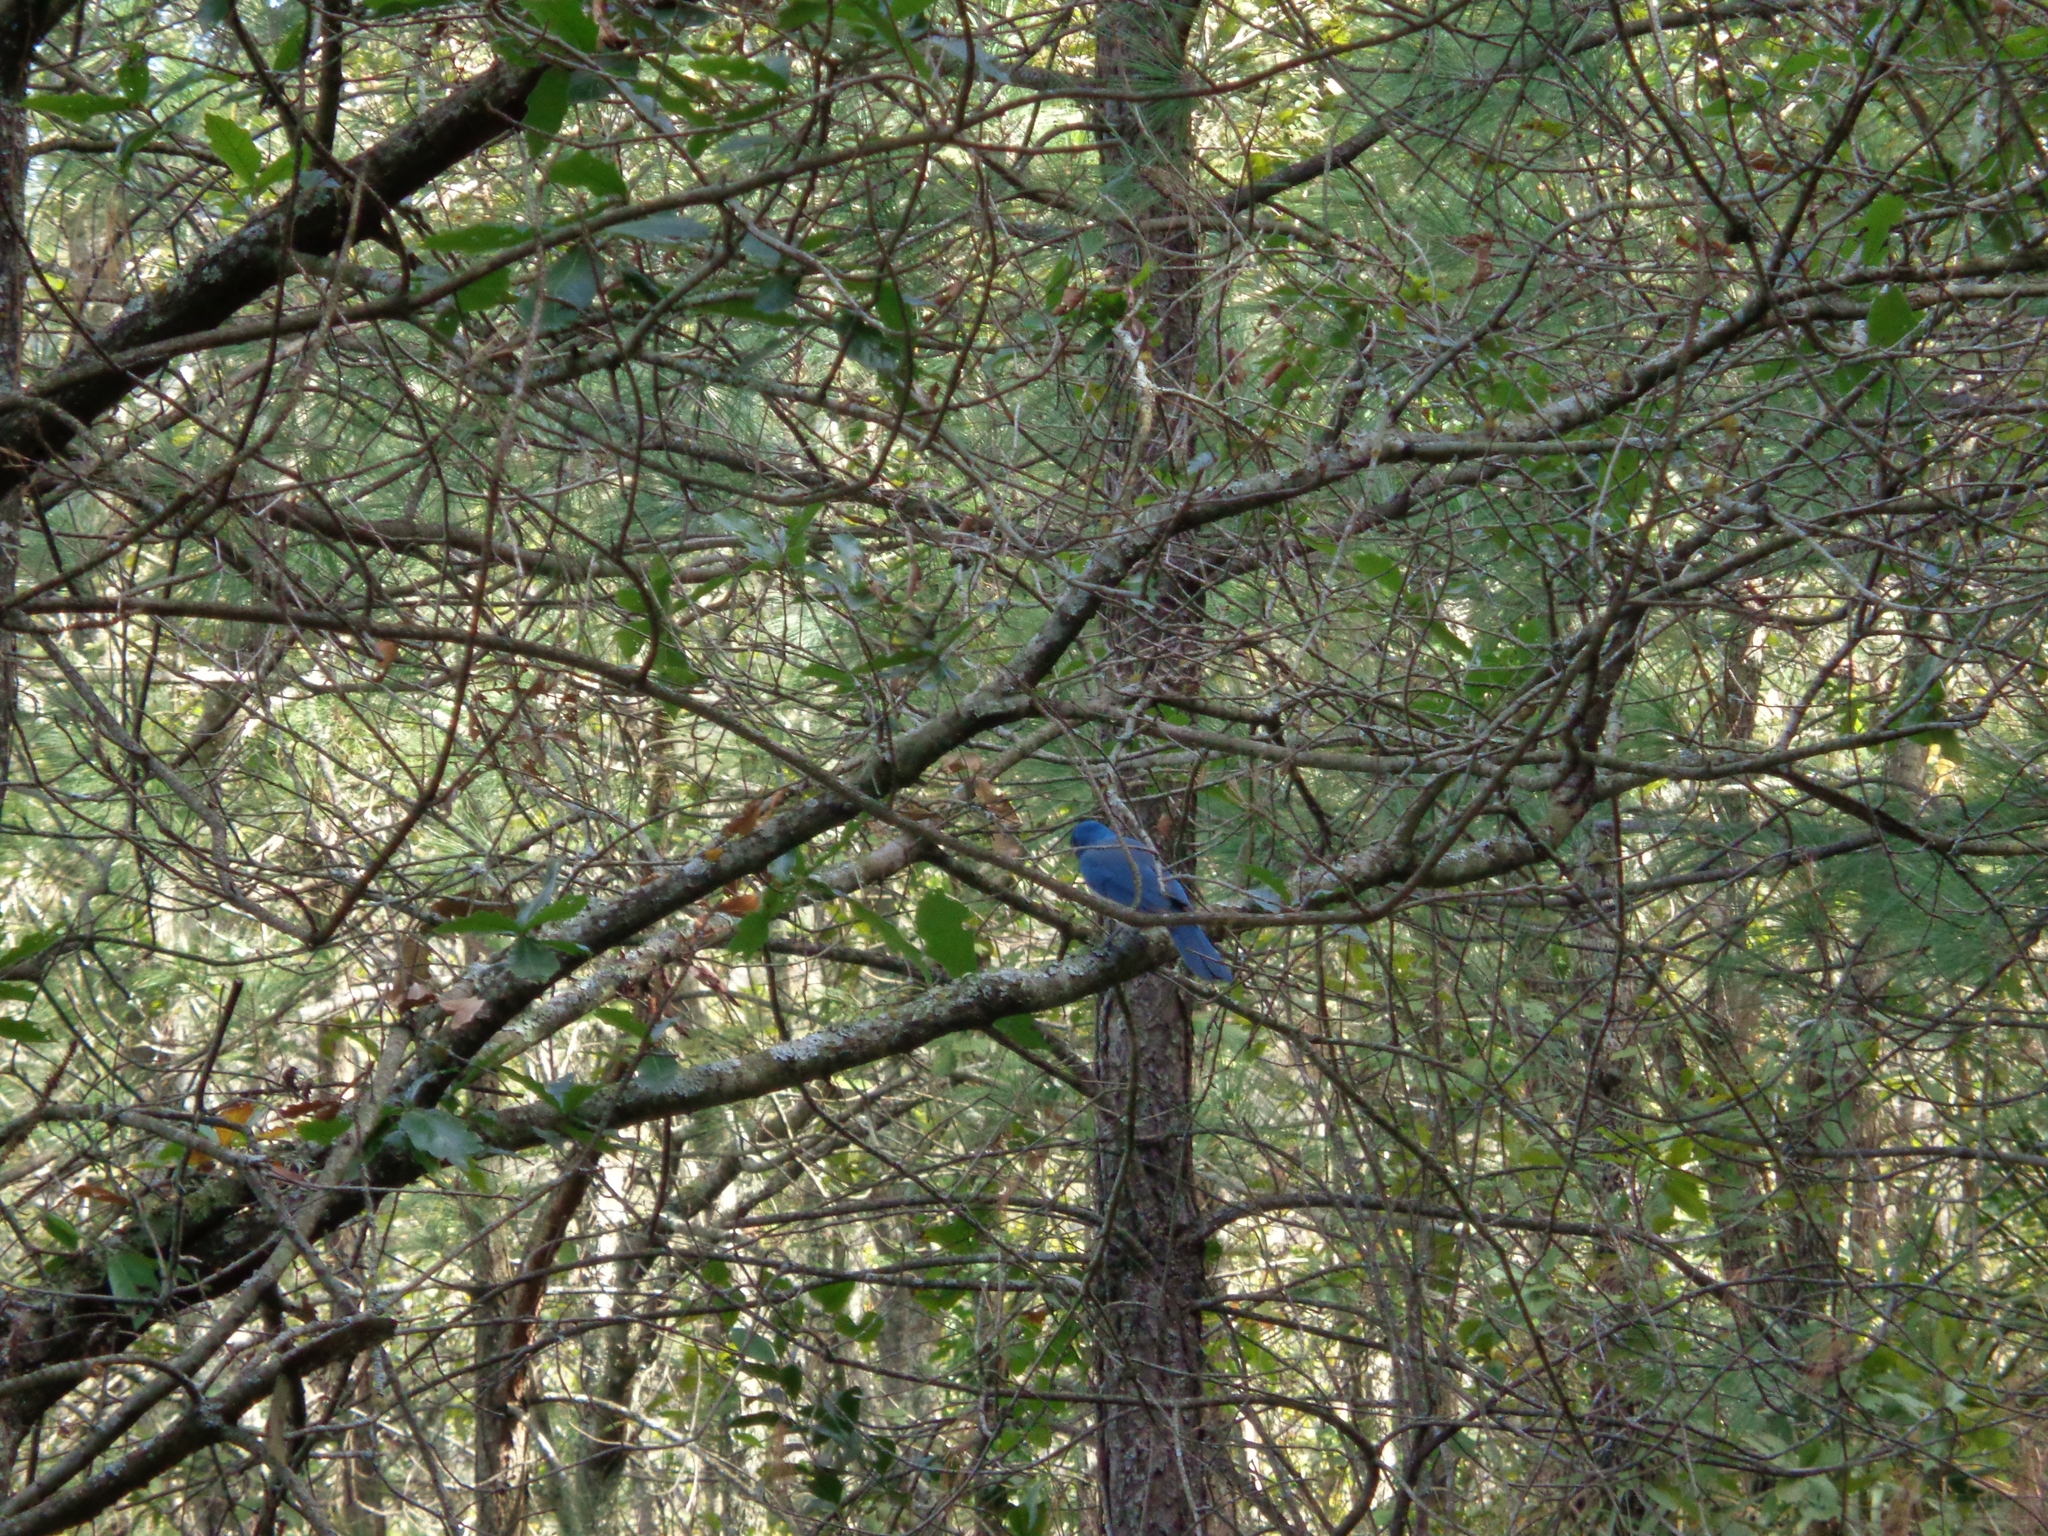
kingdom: Animalia
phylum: Chordata
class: Aves
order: Passeriformes
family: Corvidae
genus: Aphelocoma
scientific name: Aphelocoma wollweberi
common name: Mexican jay
